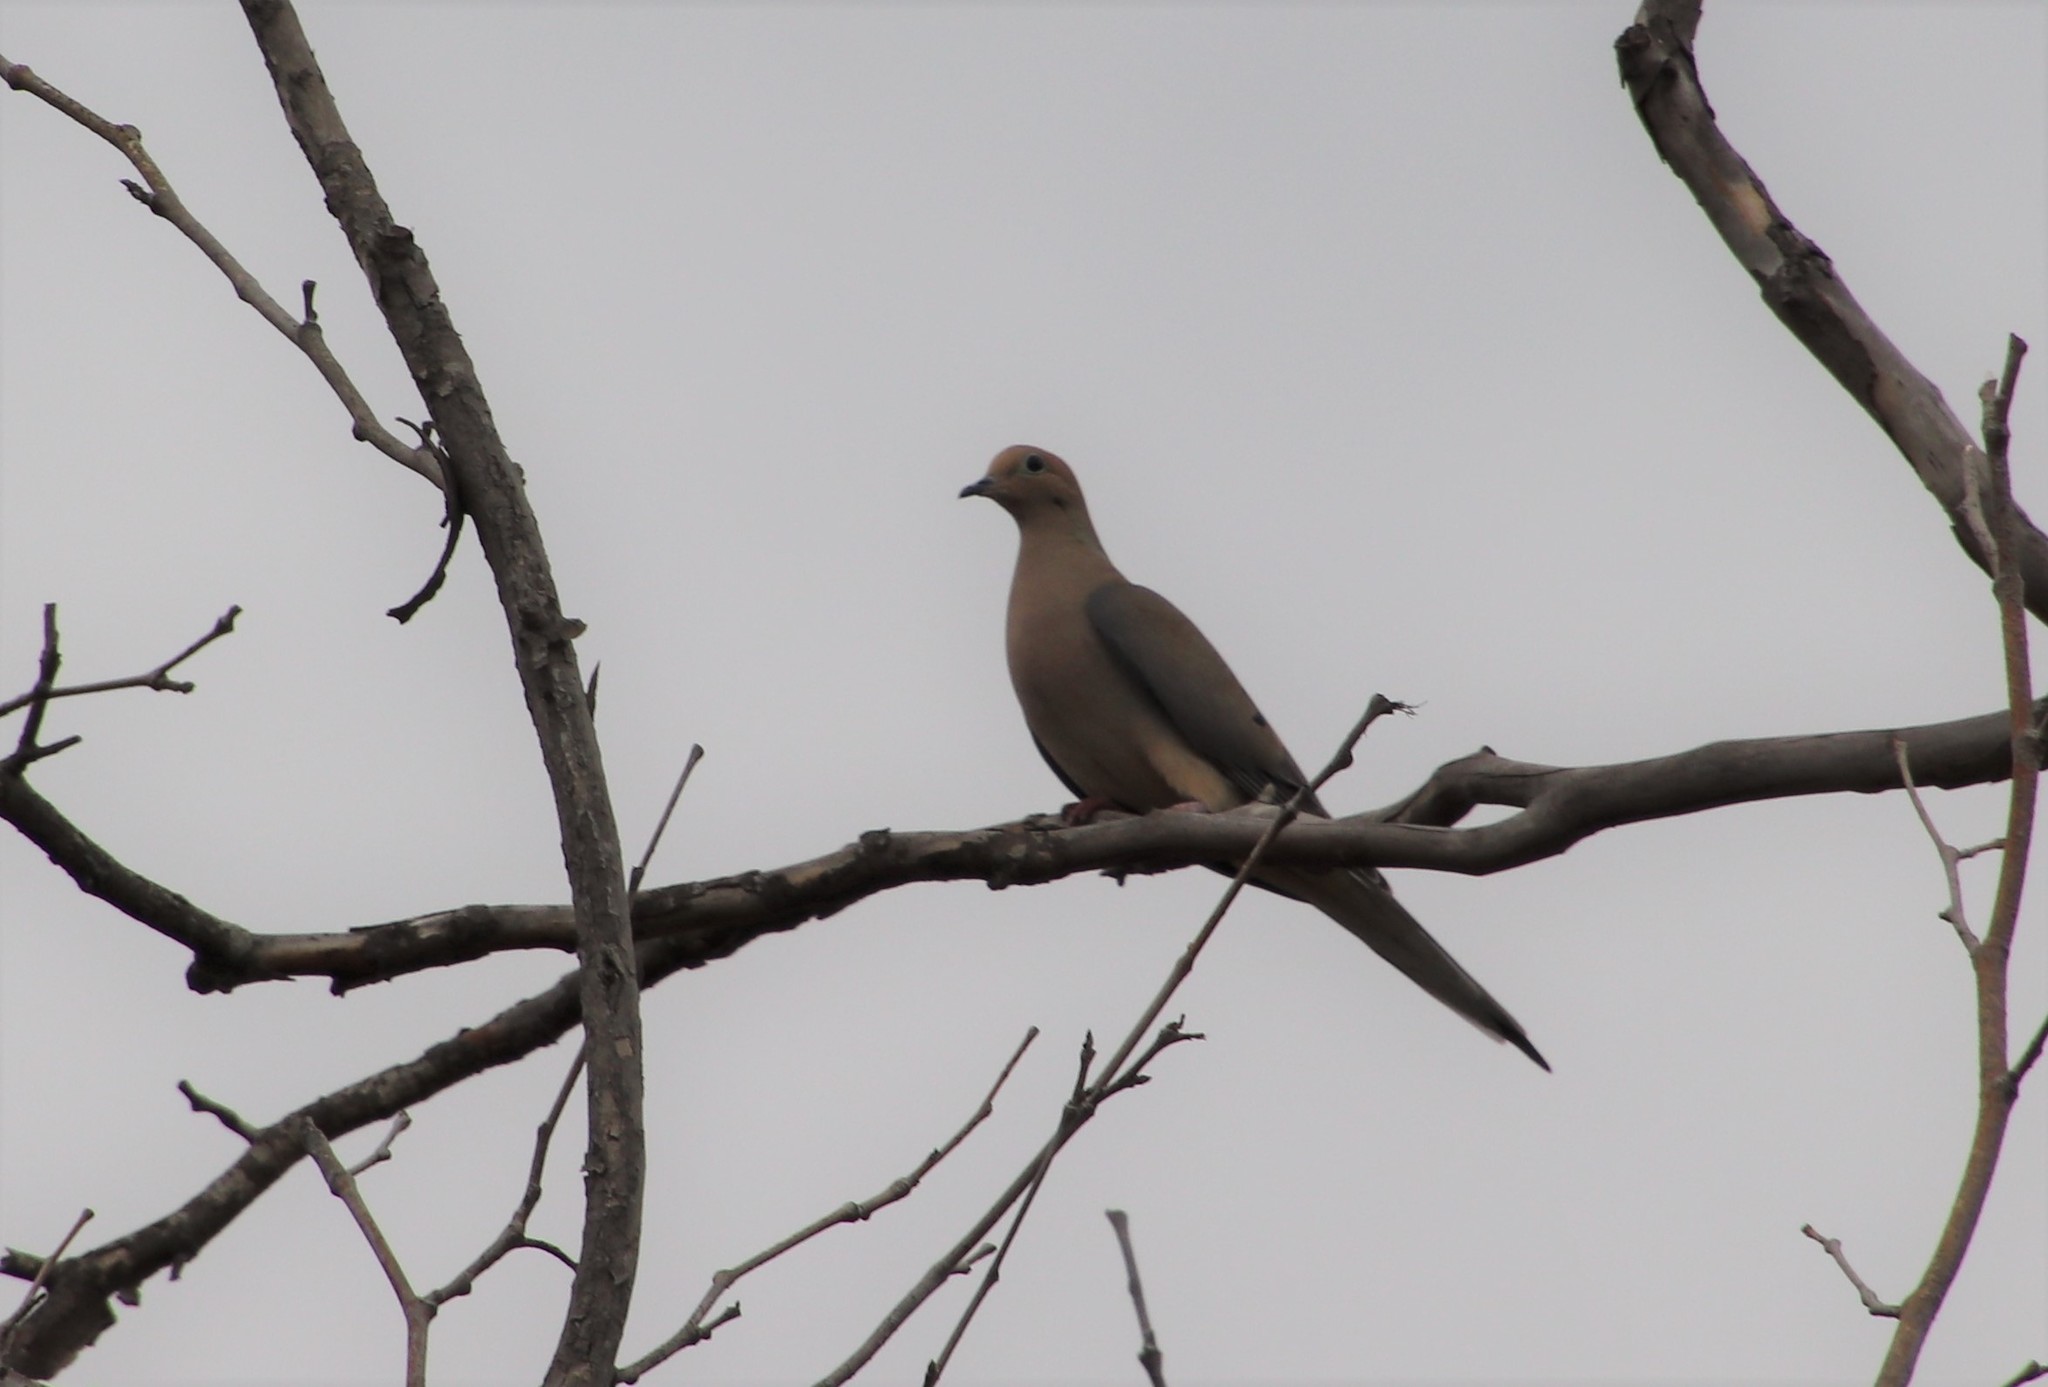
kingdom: Animalia
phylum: Chordata
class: Aves
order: Columbiformes
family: Columbidae
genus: Zenaida
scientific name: Zenaida macroura
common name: Mourning dove
